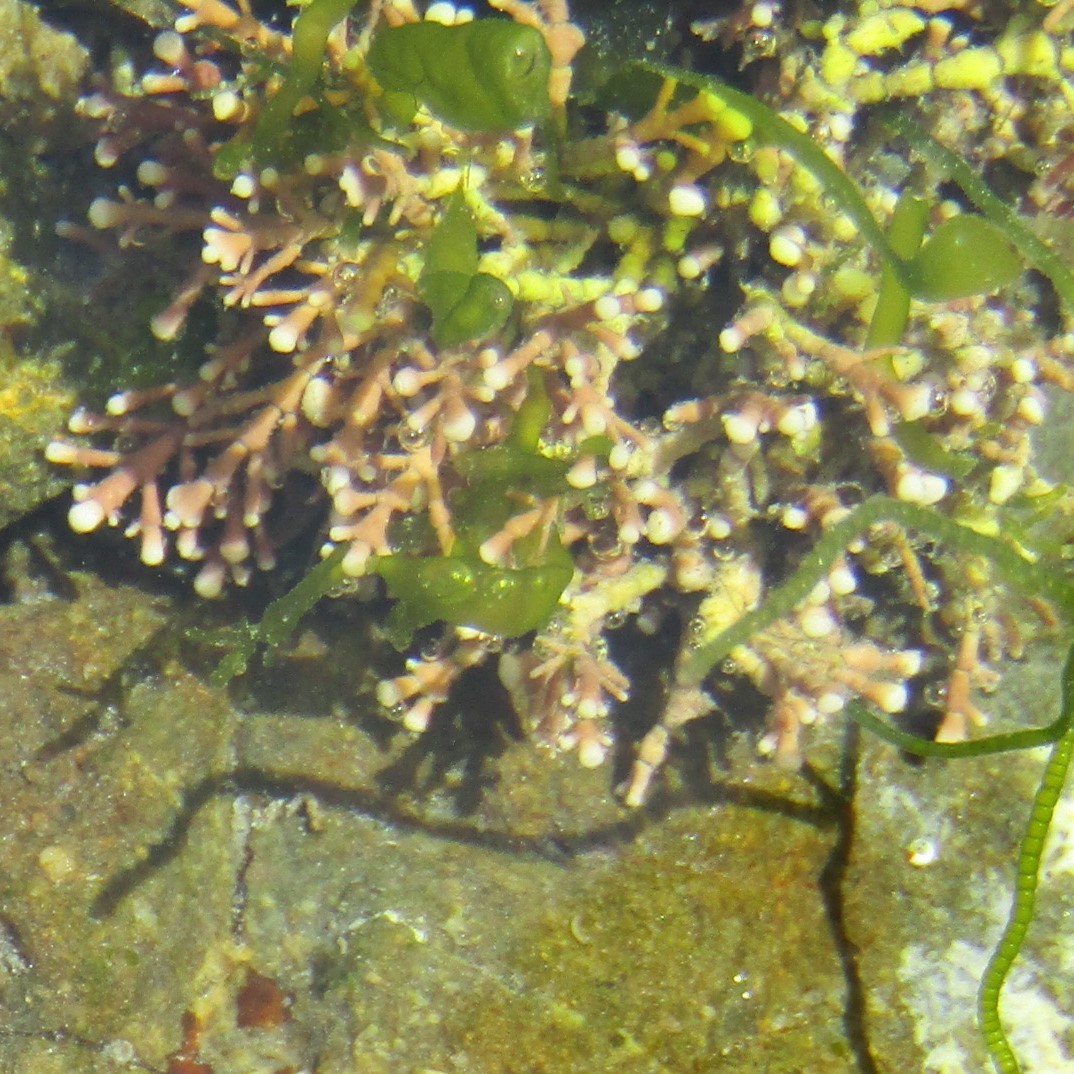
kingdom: Plantae
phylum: Rhodophyta
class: Florideophyceae
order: Corallinales
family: Corallinaceae
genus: Corallina
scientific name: Corallina officinalis
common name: Coral weed
